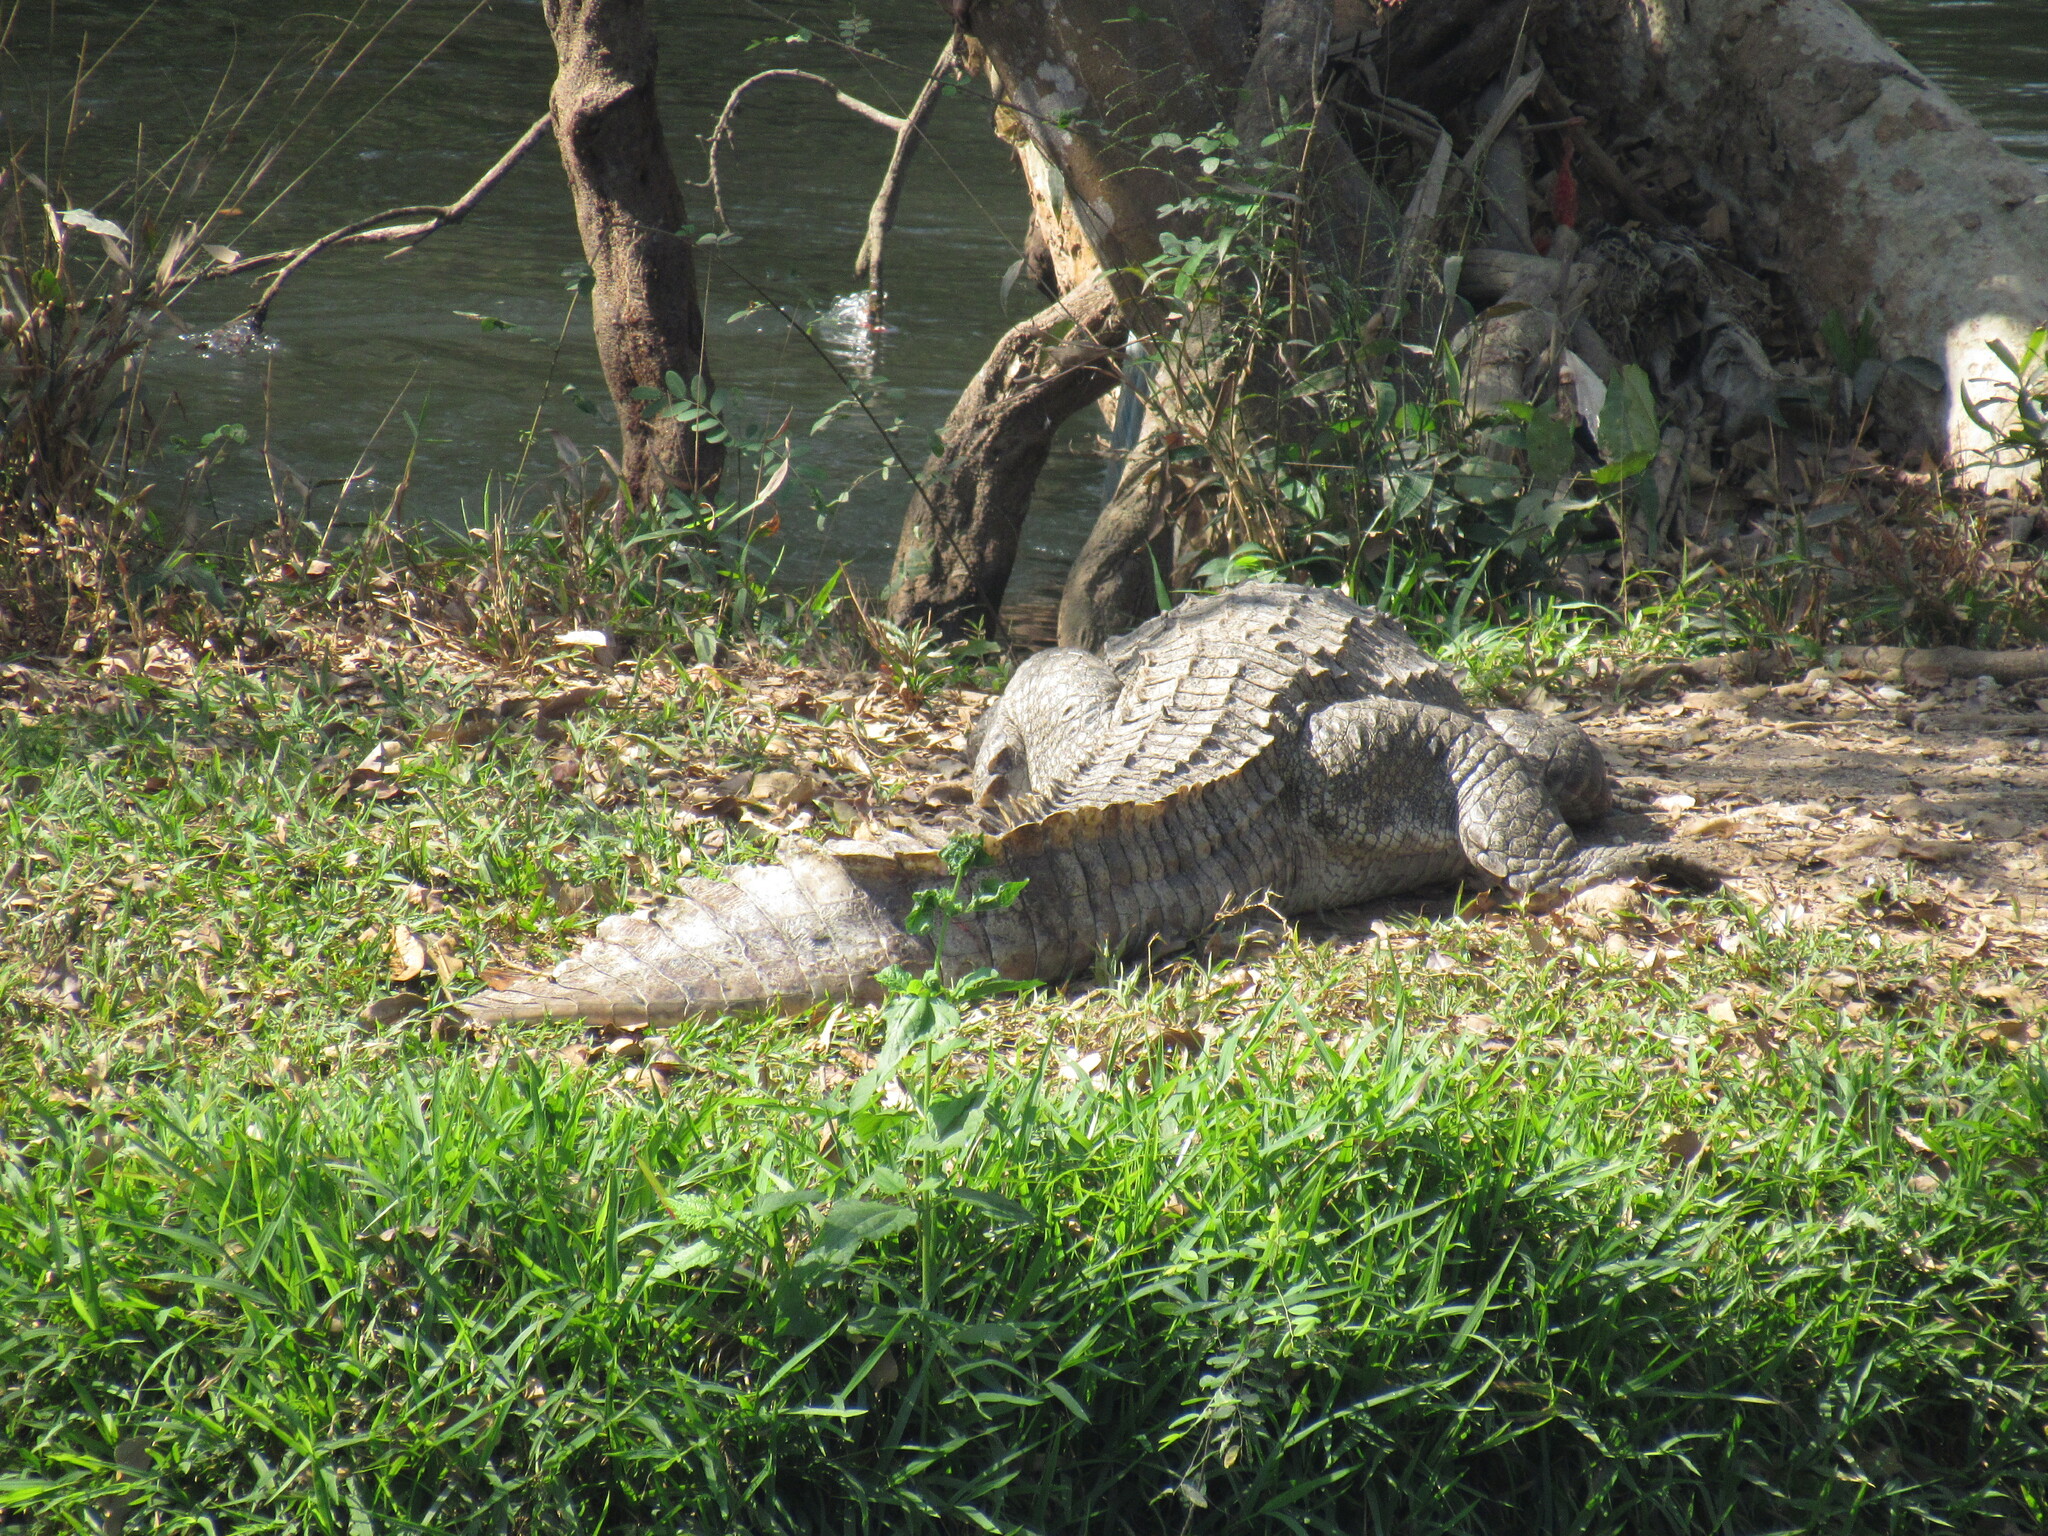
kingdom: Animalia
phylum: Chordata
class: Crocodylia
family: Crocodylidae
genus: Crocodylus
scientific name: Crocodylus palustris
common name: Mugger crocodile
